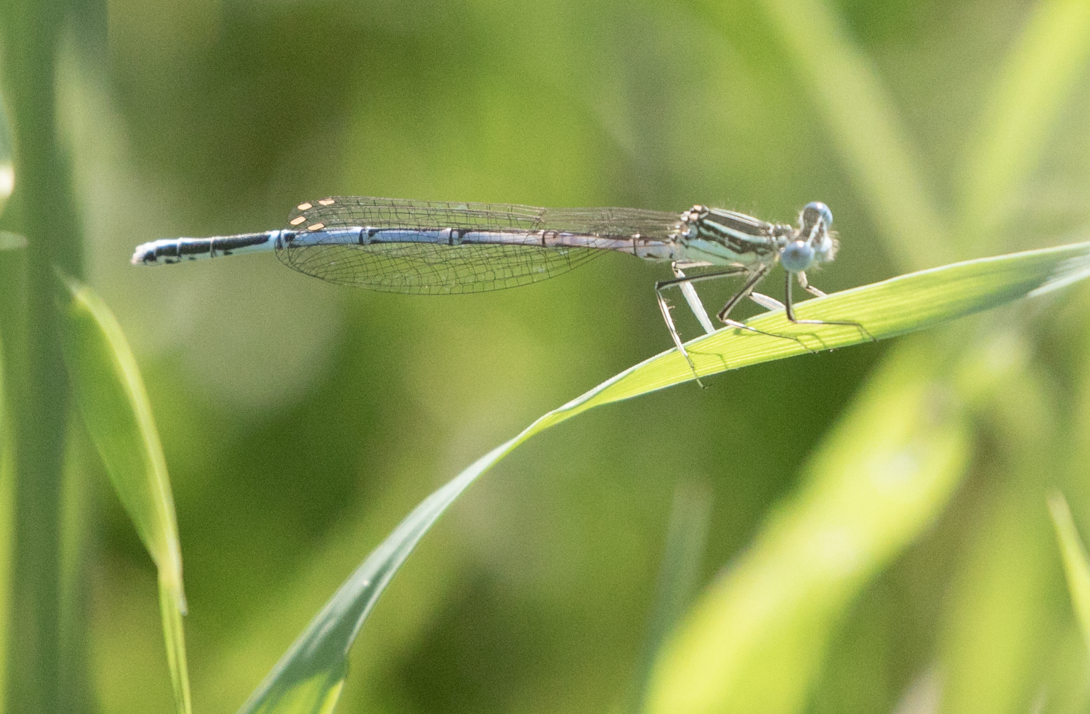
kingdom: Animalia
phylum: Arthropoda
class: Insecta
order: Odonata
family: Platycnemididae
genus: Platycnemis
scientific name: Platycnemis pennipes
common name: White-legged damselfly
